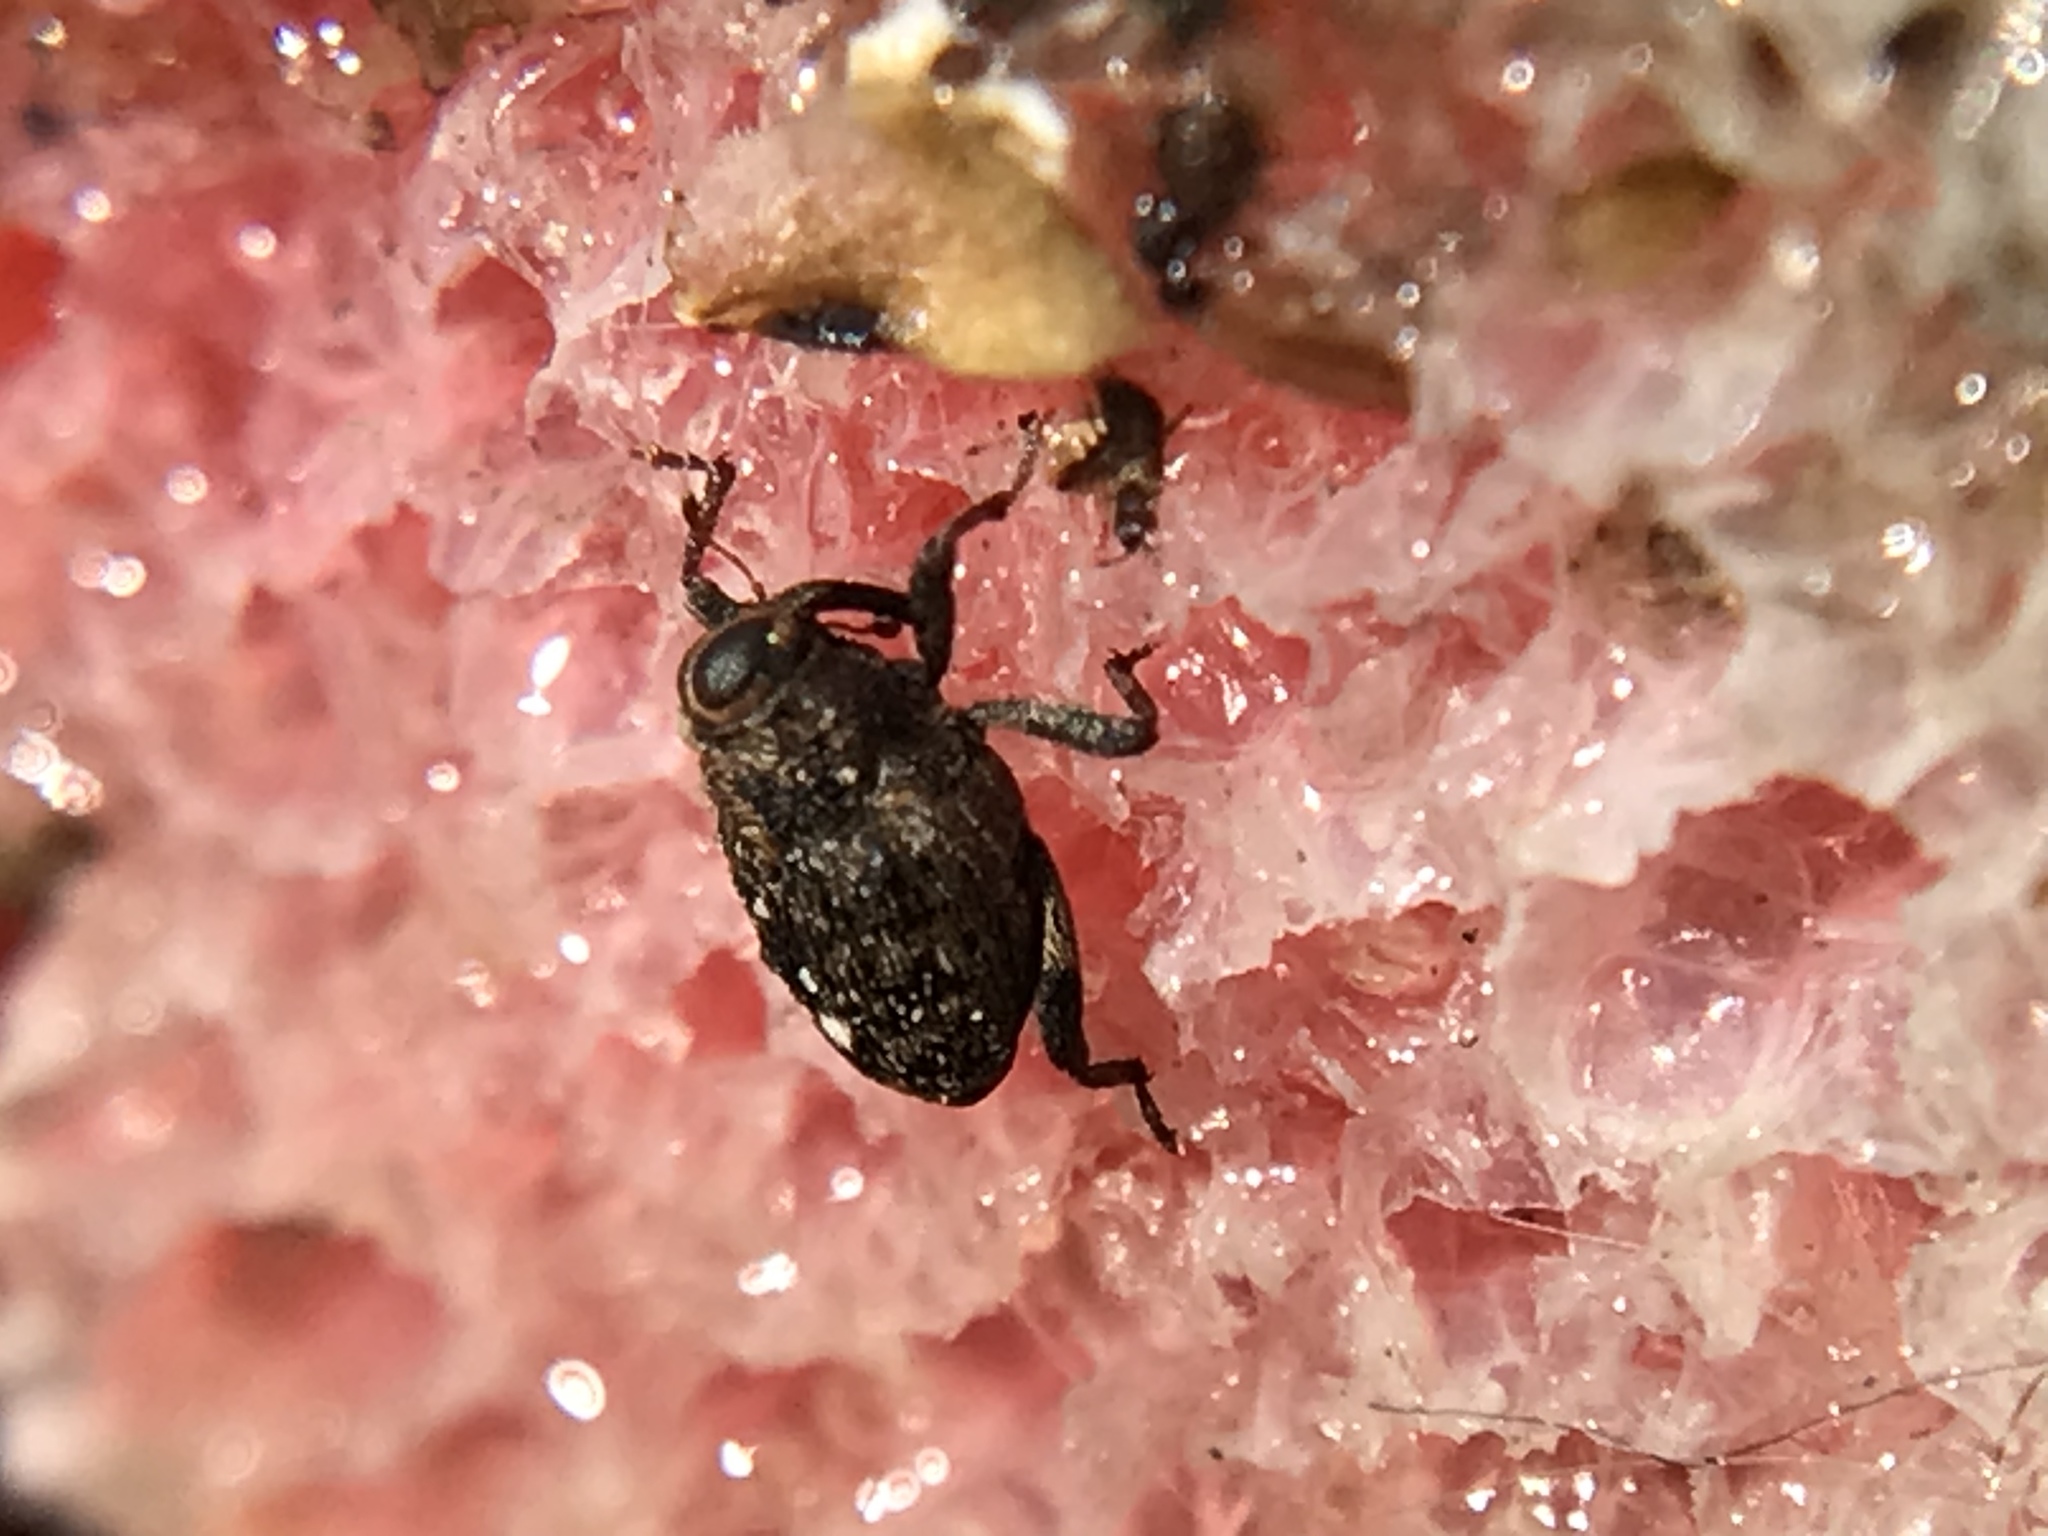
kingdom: Animalia
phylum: Arthropoda
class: Insecta
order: Coleoptera
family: Curculionidae
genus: Lechriops
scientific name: Lechriops oculatus
